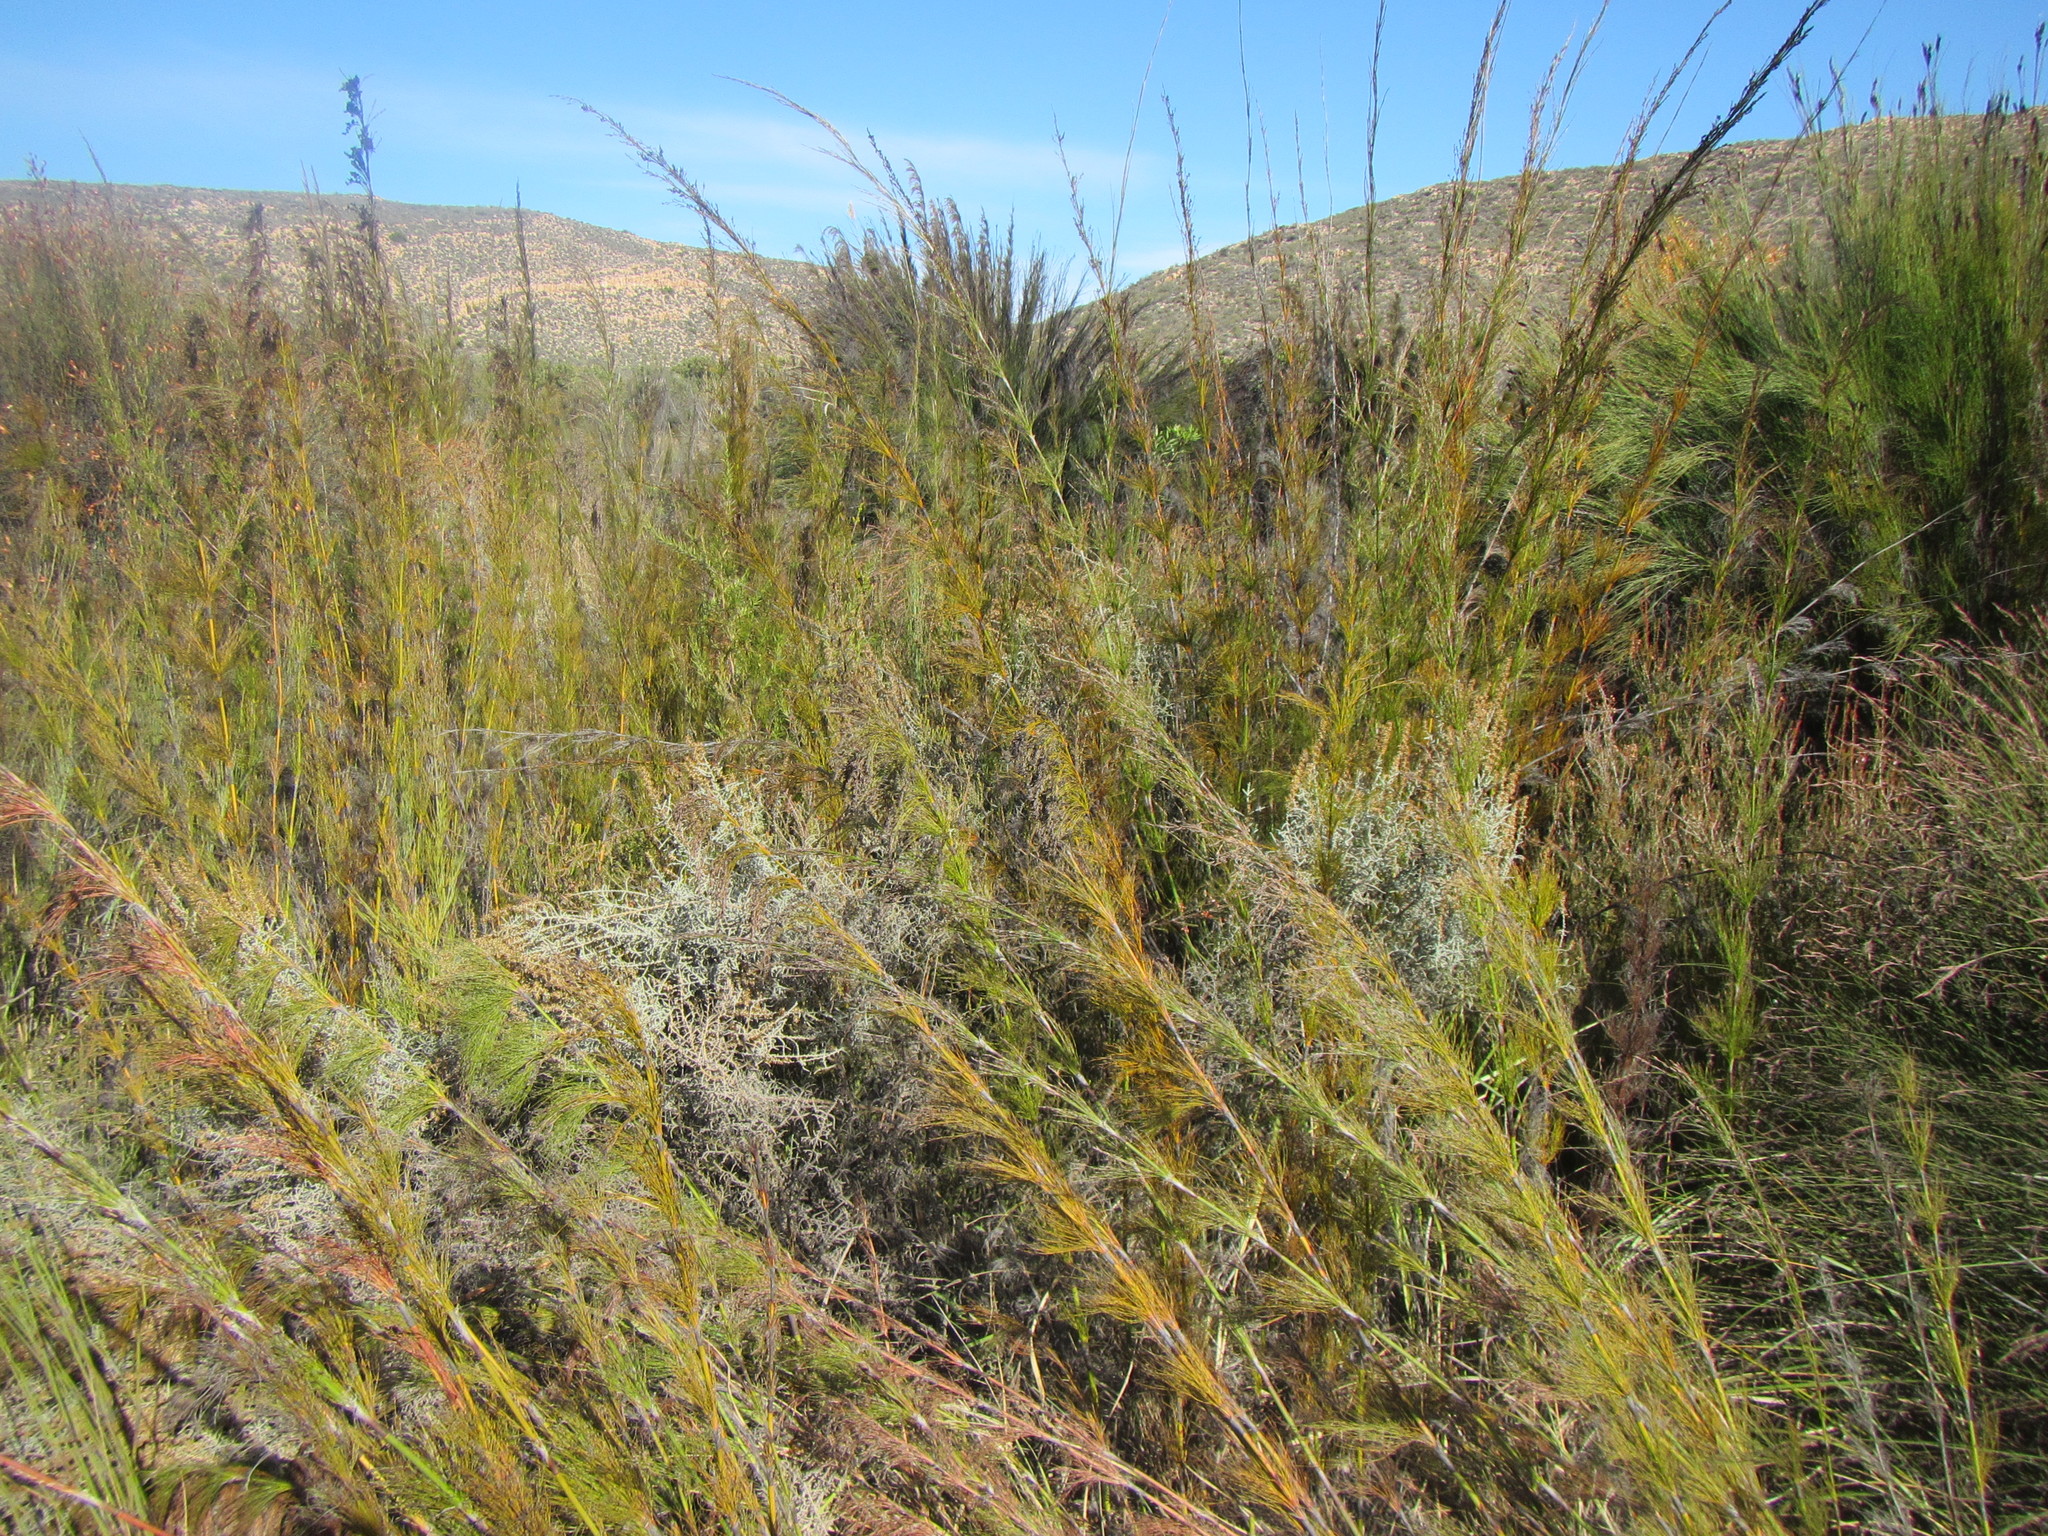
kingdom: Plantae
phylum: Tracheophyta
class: Liliopsida
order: Poales
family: Restionaceae
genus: Rhodocoma
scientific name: Rhodocoma capensis
